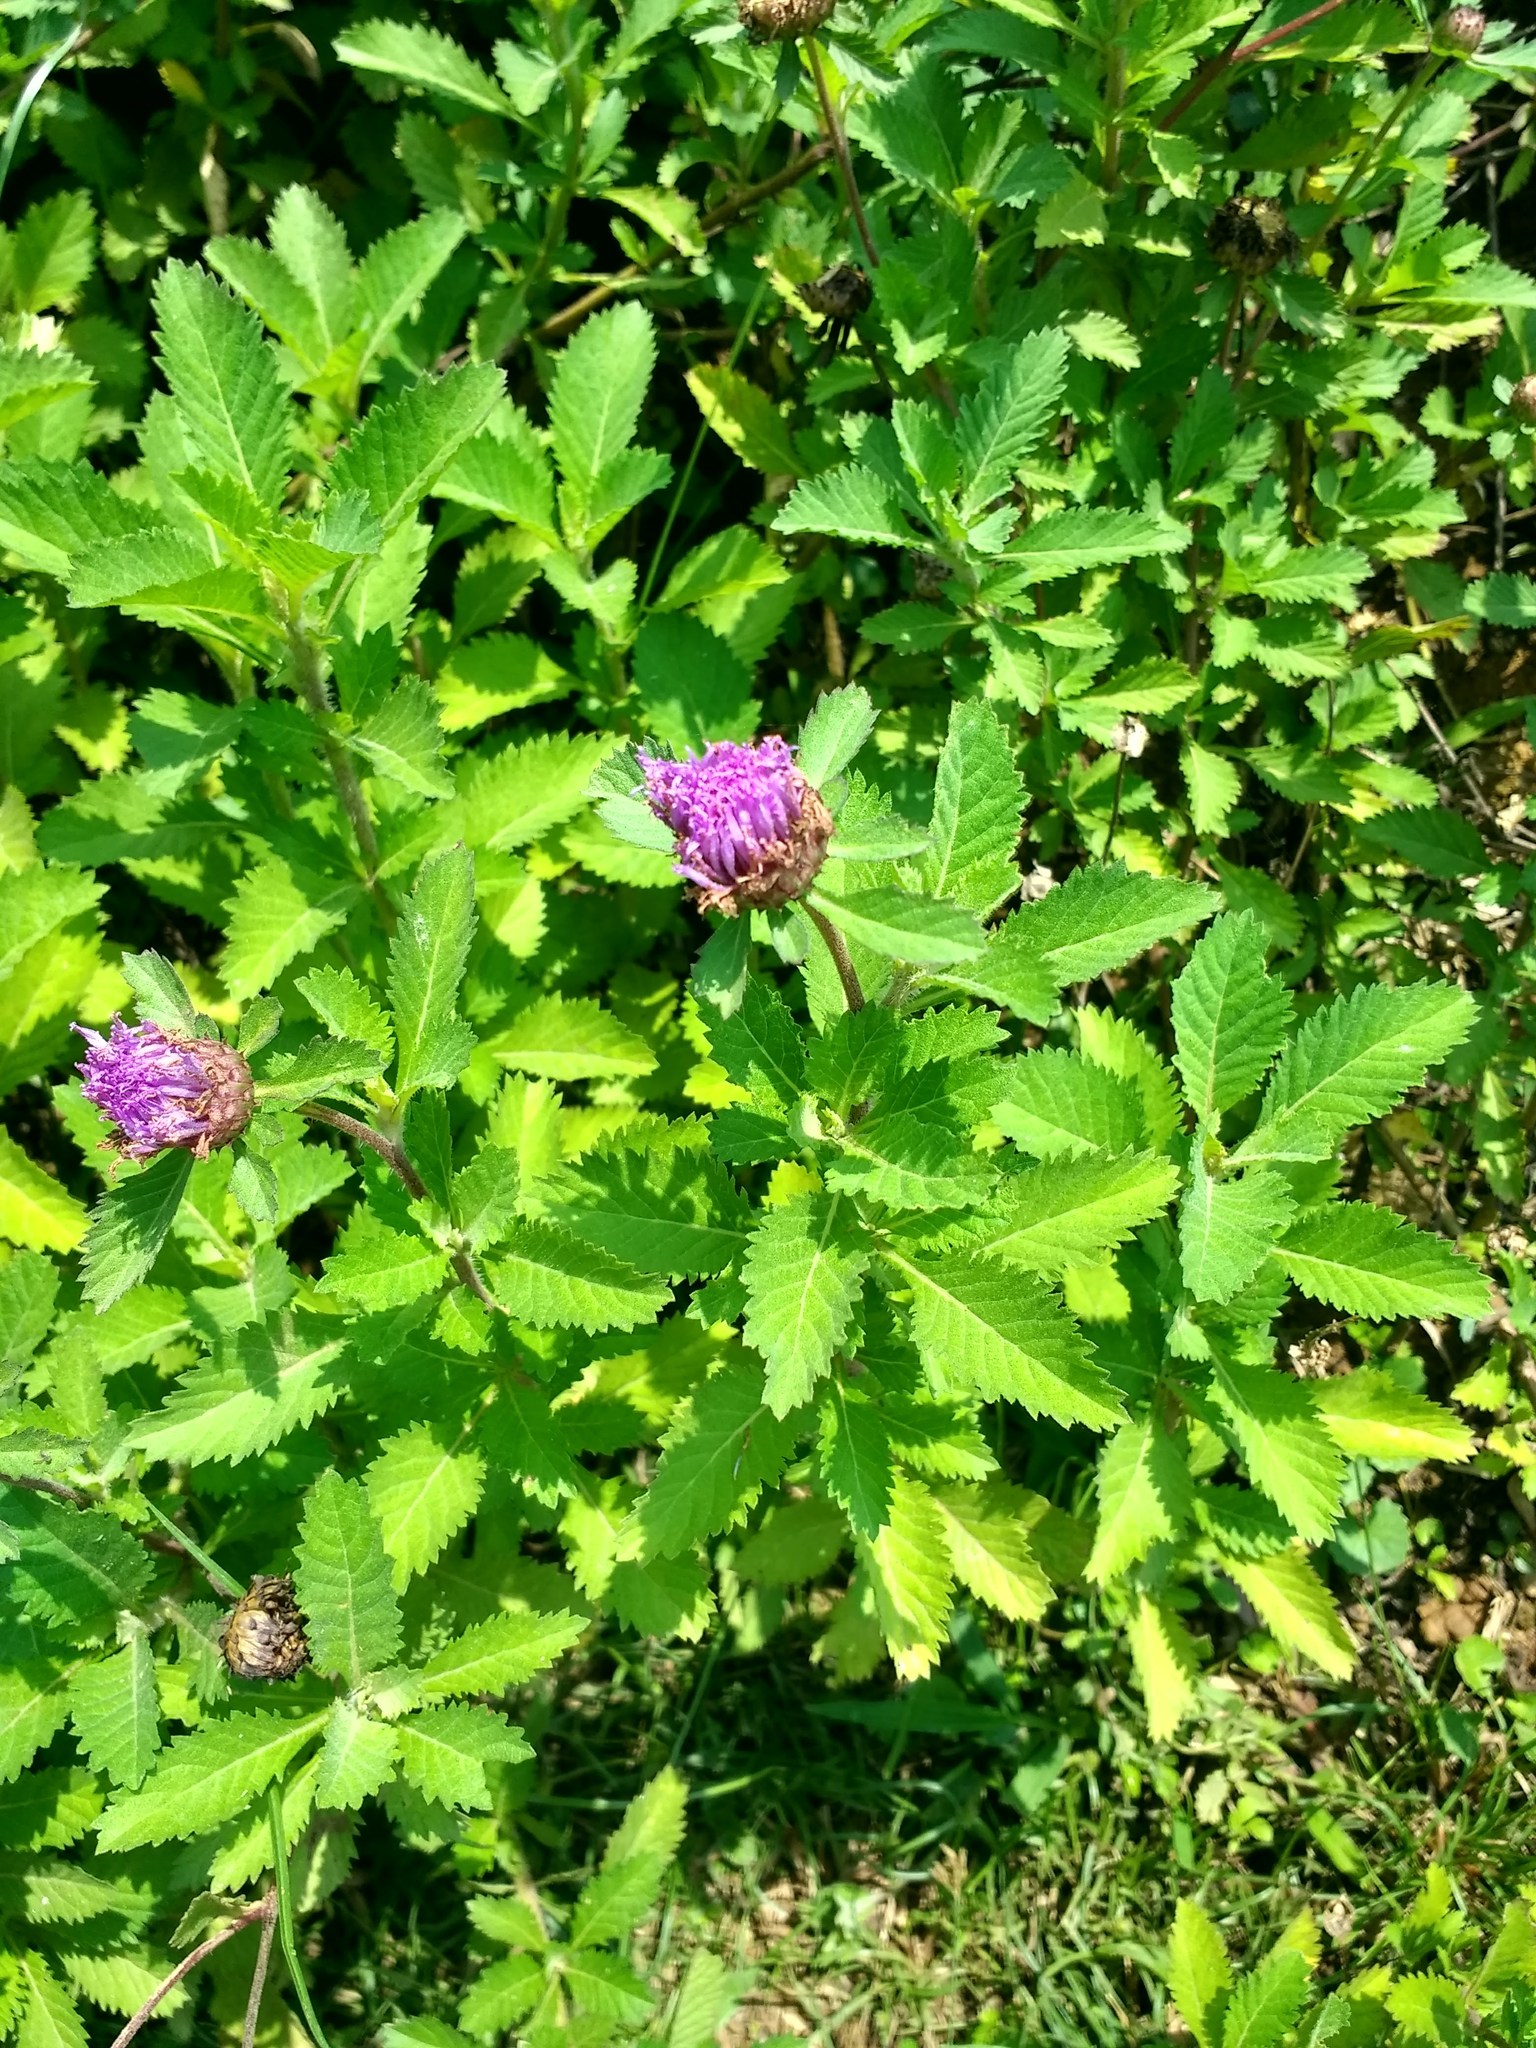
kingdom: Plantae
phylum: Tracheophyta
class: Magnoliopsida
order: Asterales
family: Asteraceae
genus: Centratherum
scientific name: Centratherum punctatum
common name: Larkdaisy
